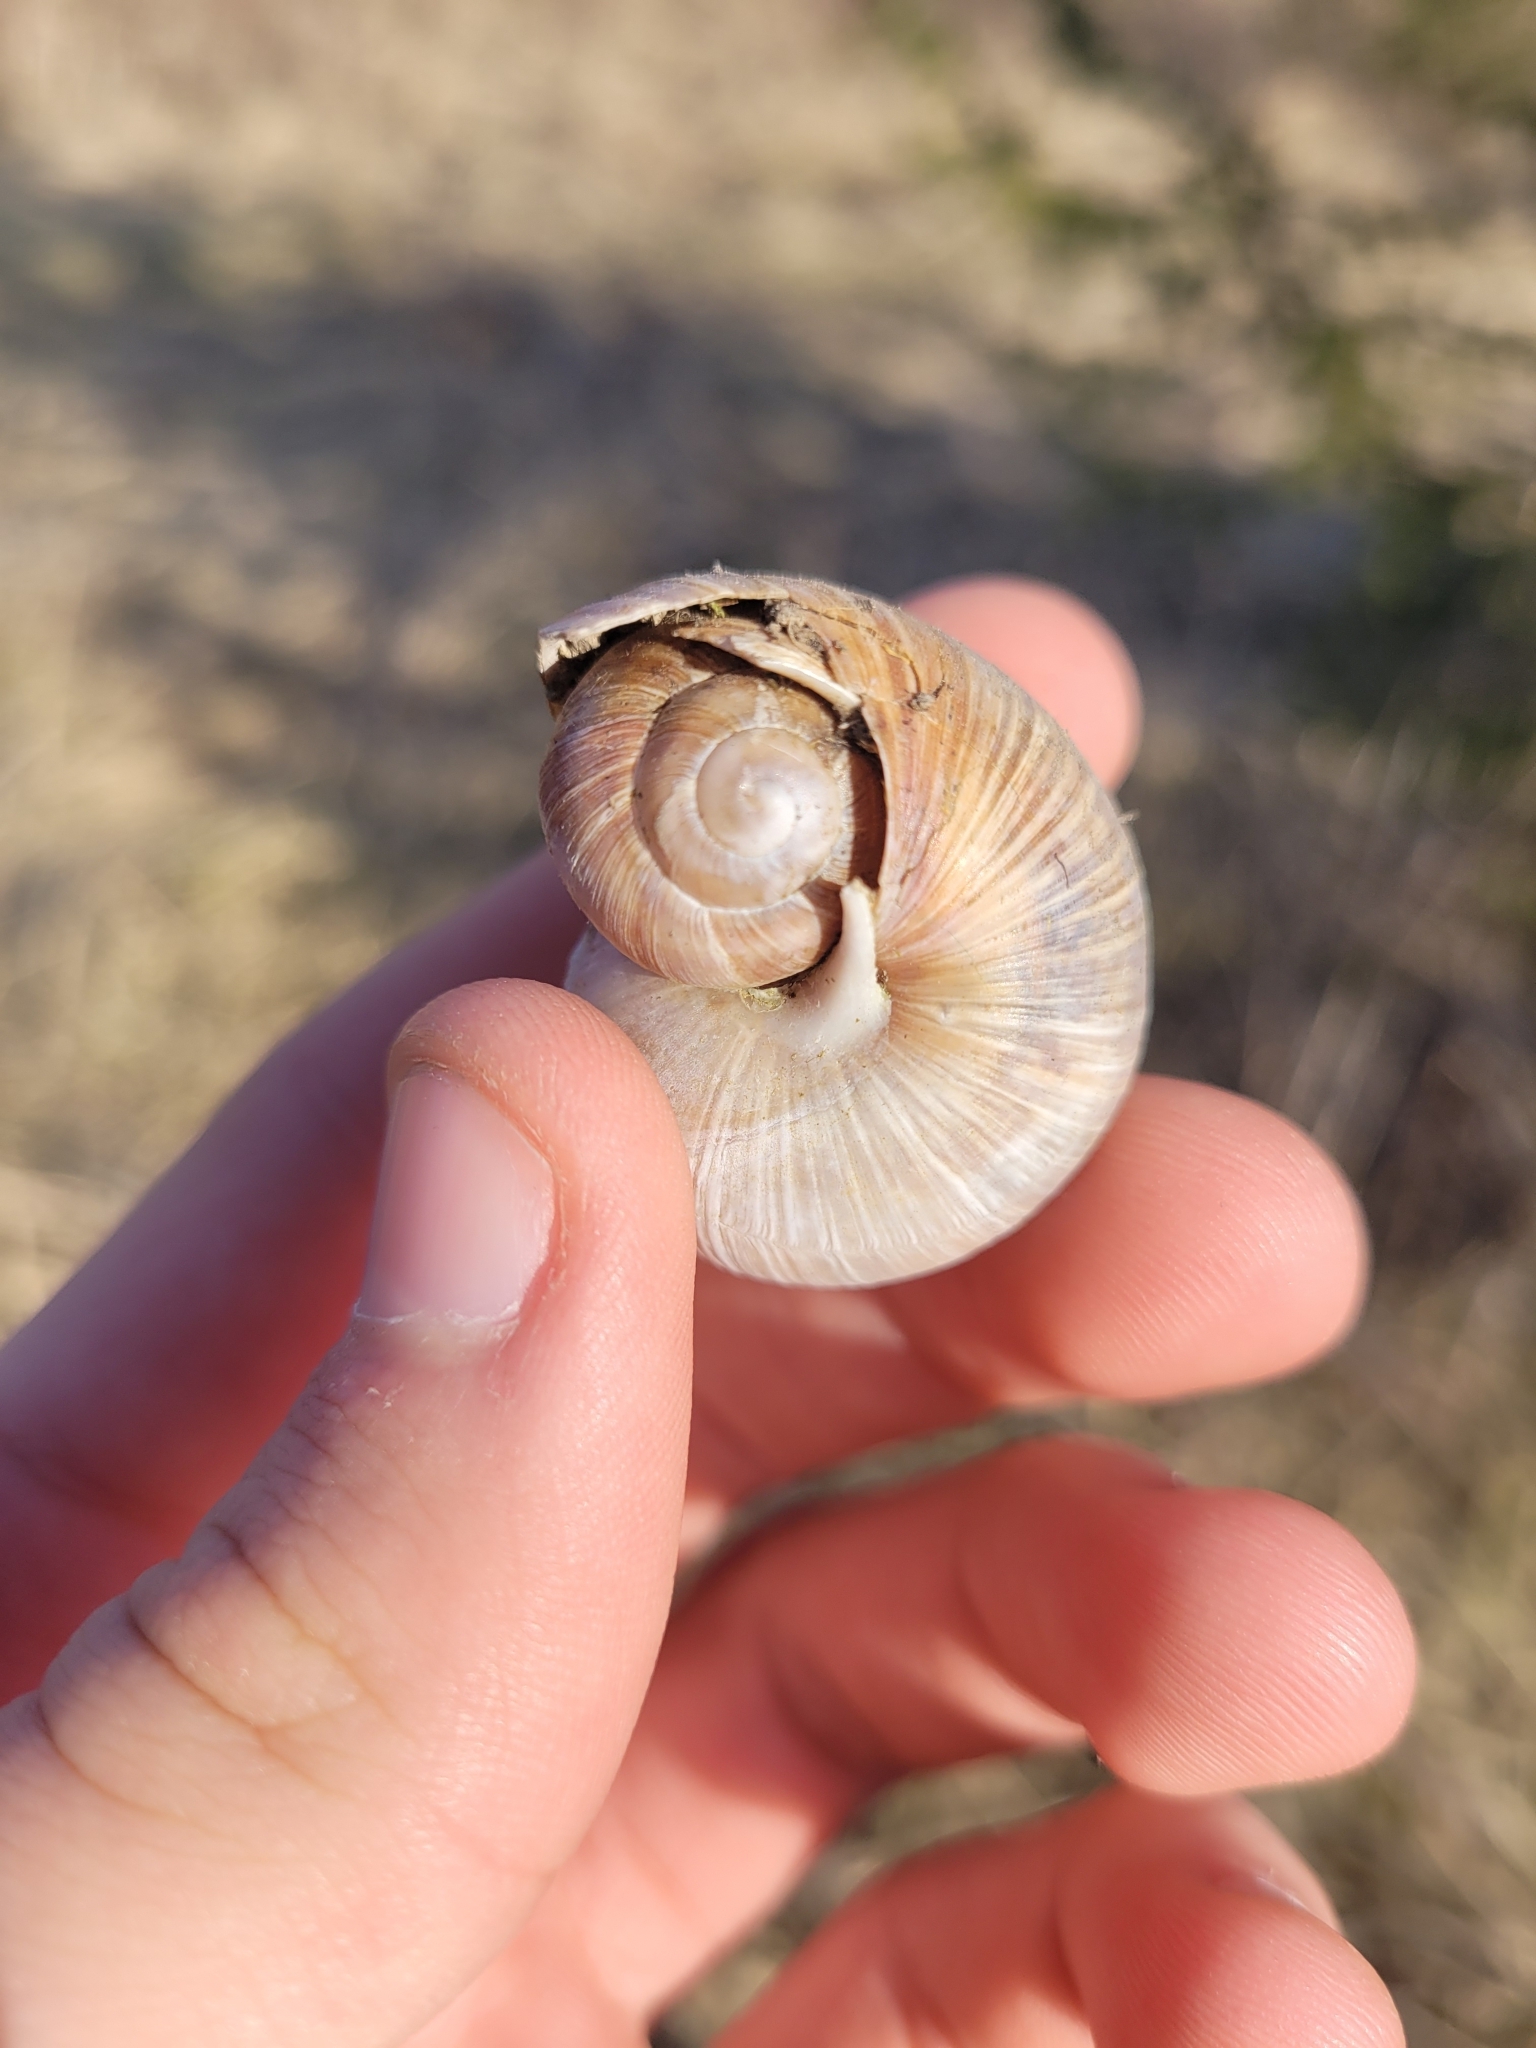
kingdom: Animalia
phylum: Mollusca
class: Gastropoda
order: Stylommatophora
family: Helicidae
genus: Helix
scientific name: Helix pomatia
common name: Roman snail
